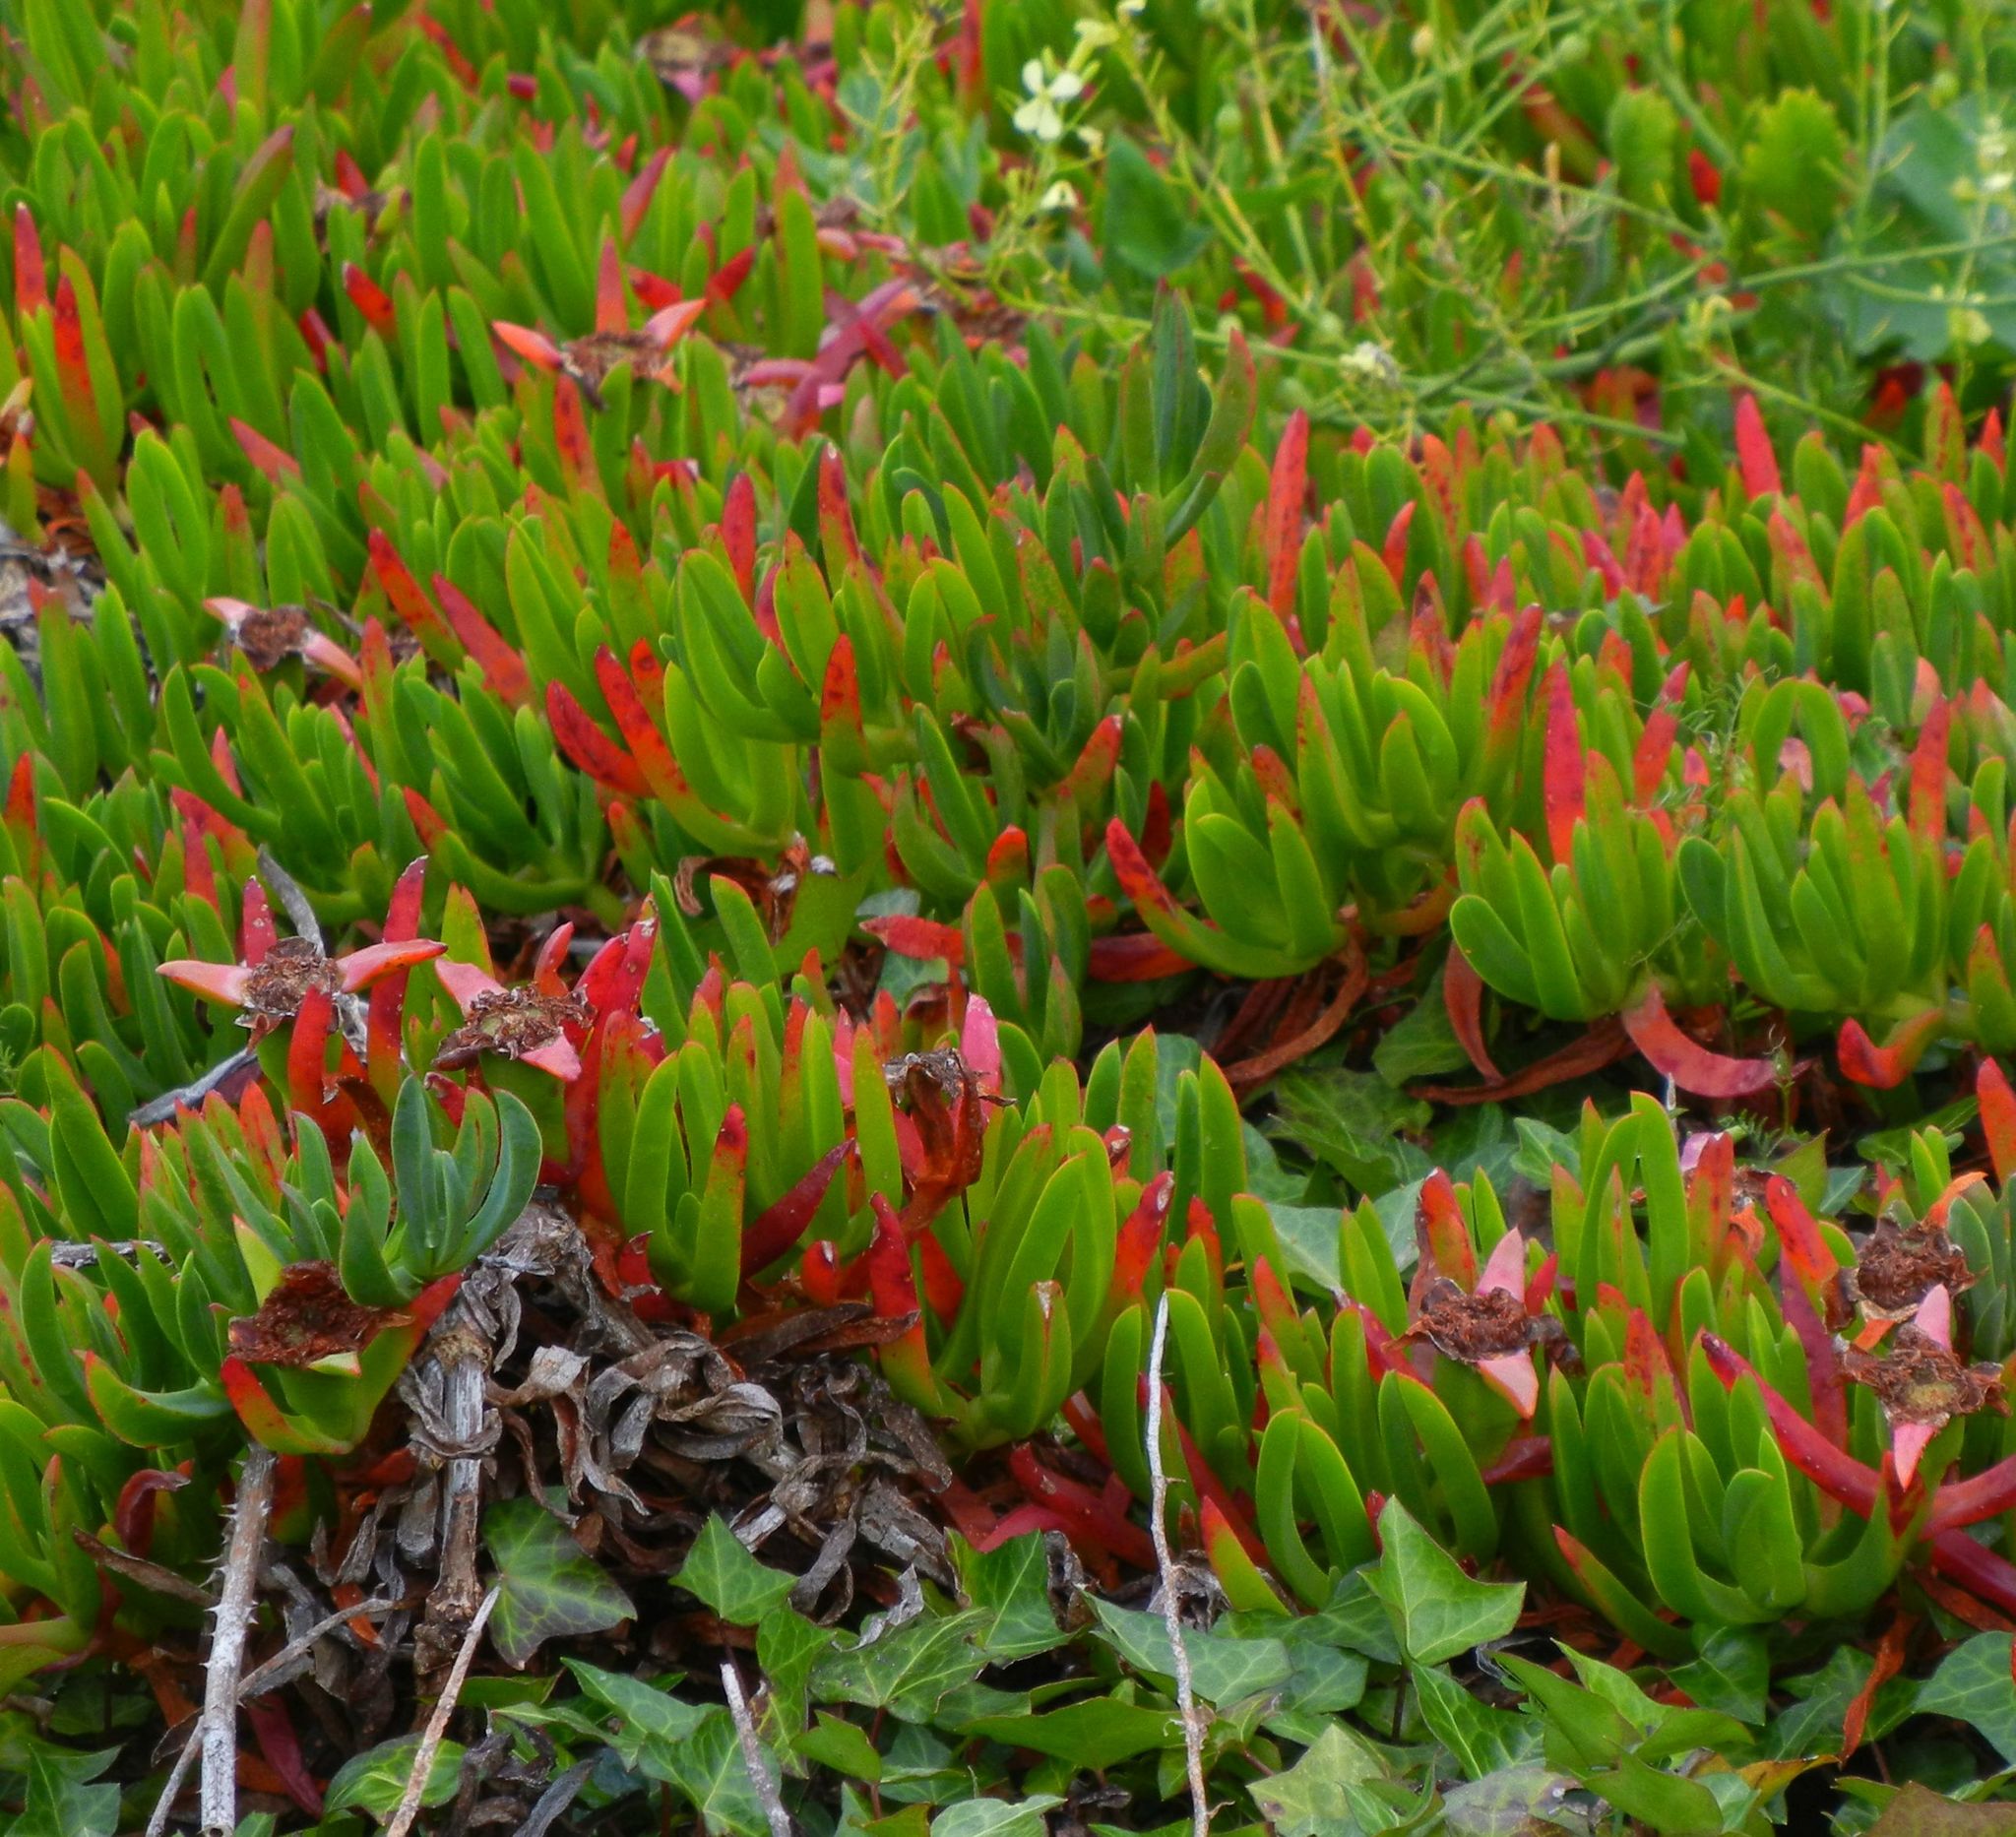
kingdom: Plantae
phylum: Tracheophyta
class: Magnoliopsida
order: Caryophyllales
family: Aizoaceae
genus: Carpobrotus
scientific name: Carpobrotus edulis
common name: Hottentot-fig
